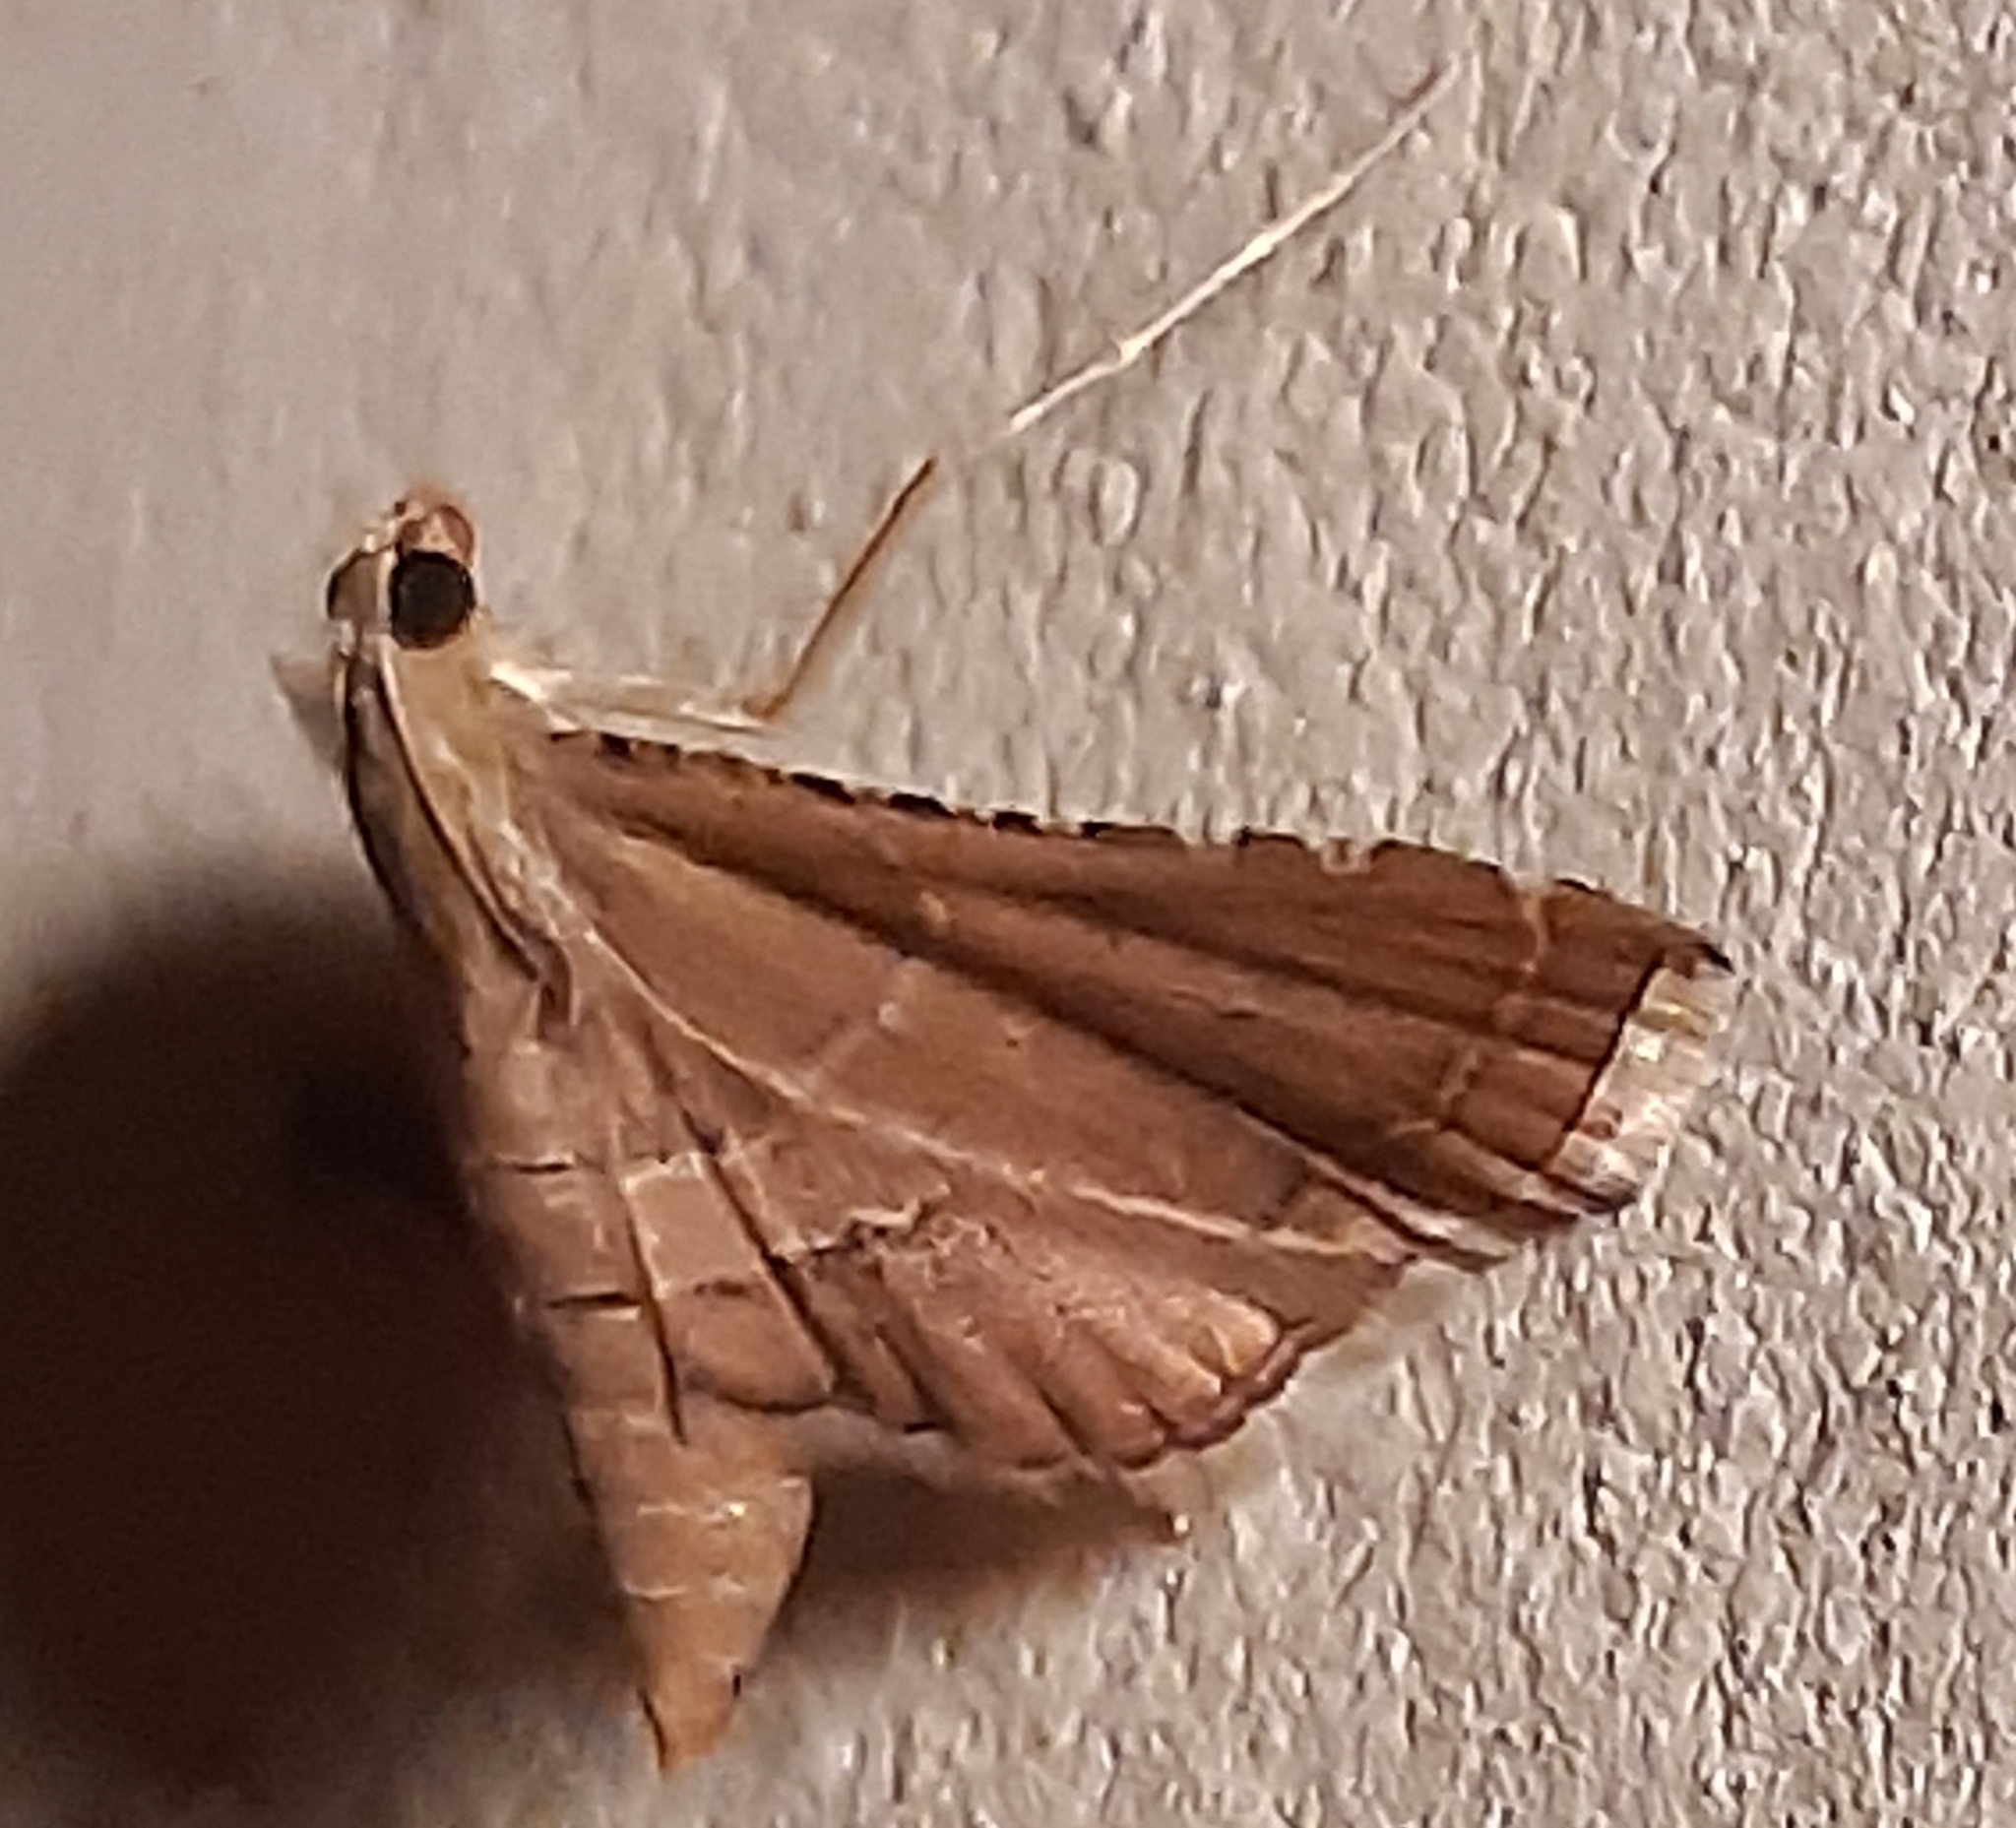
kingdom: Animalia
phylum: Arthropoda
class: Insecta
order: Lepidoptera
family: Pyralidae
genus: Endotricha
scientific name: Endotricha flammealis
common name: Rosy tabby
